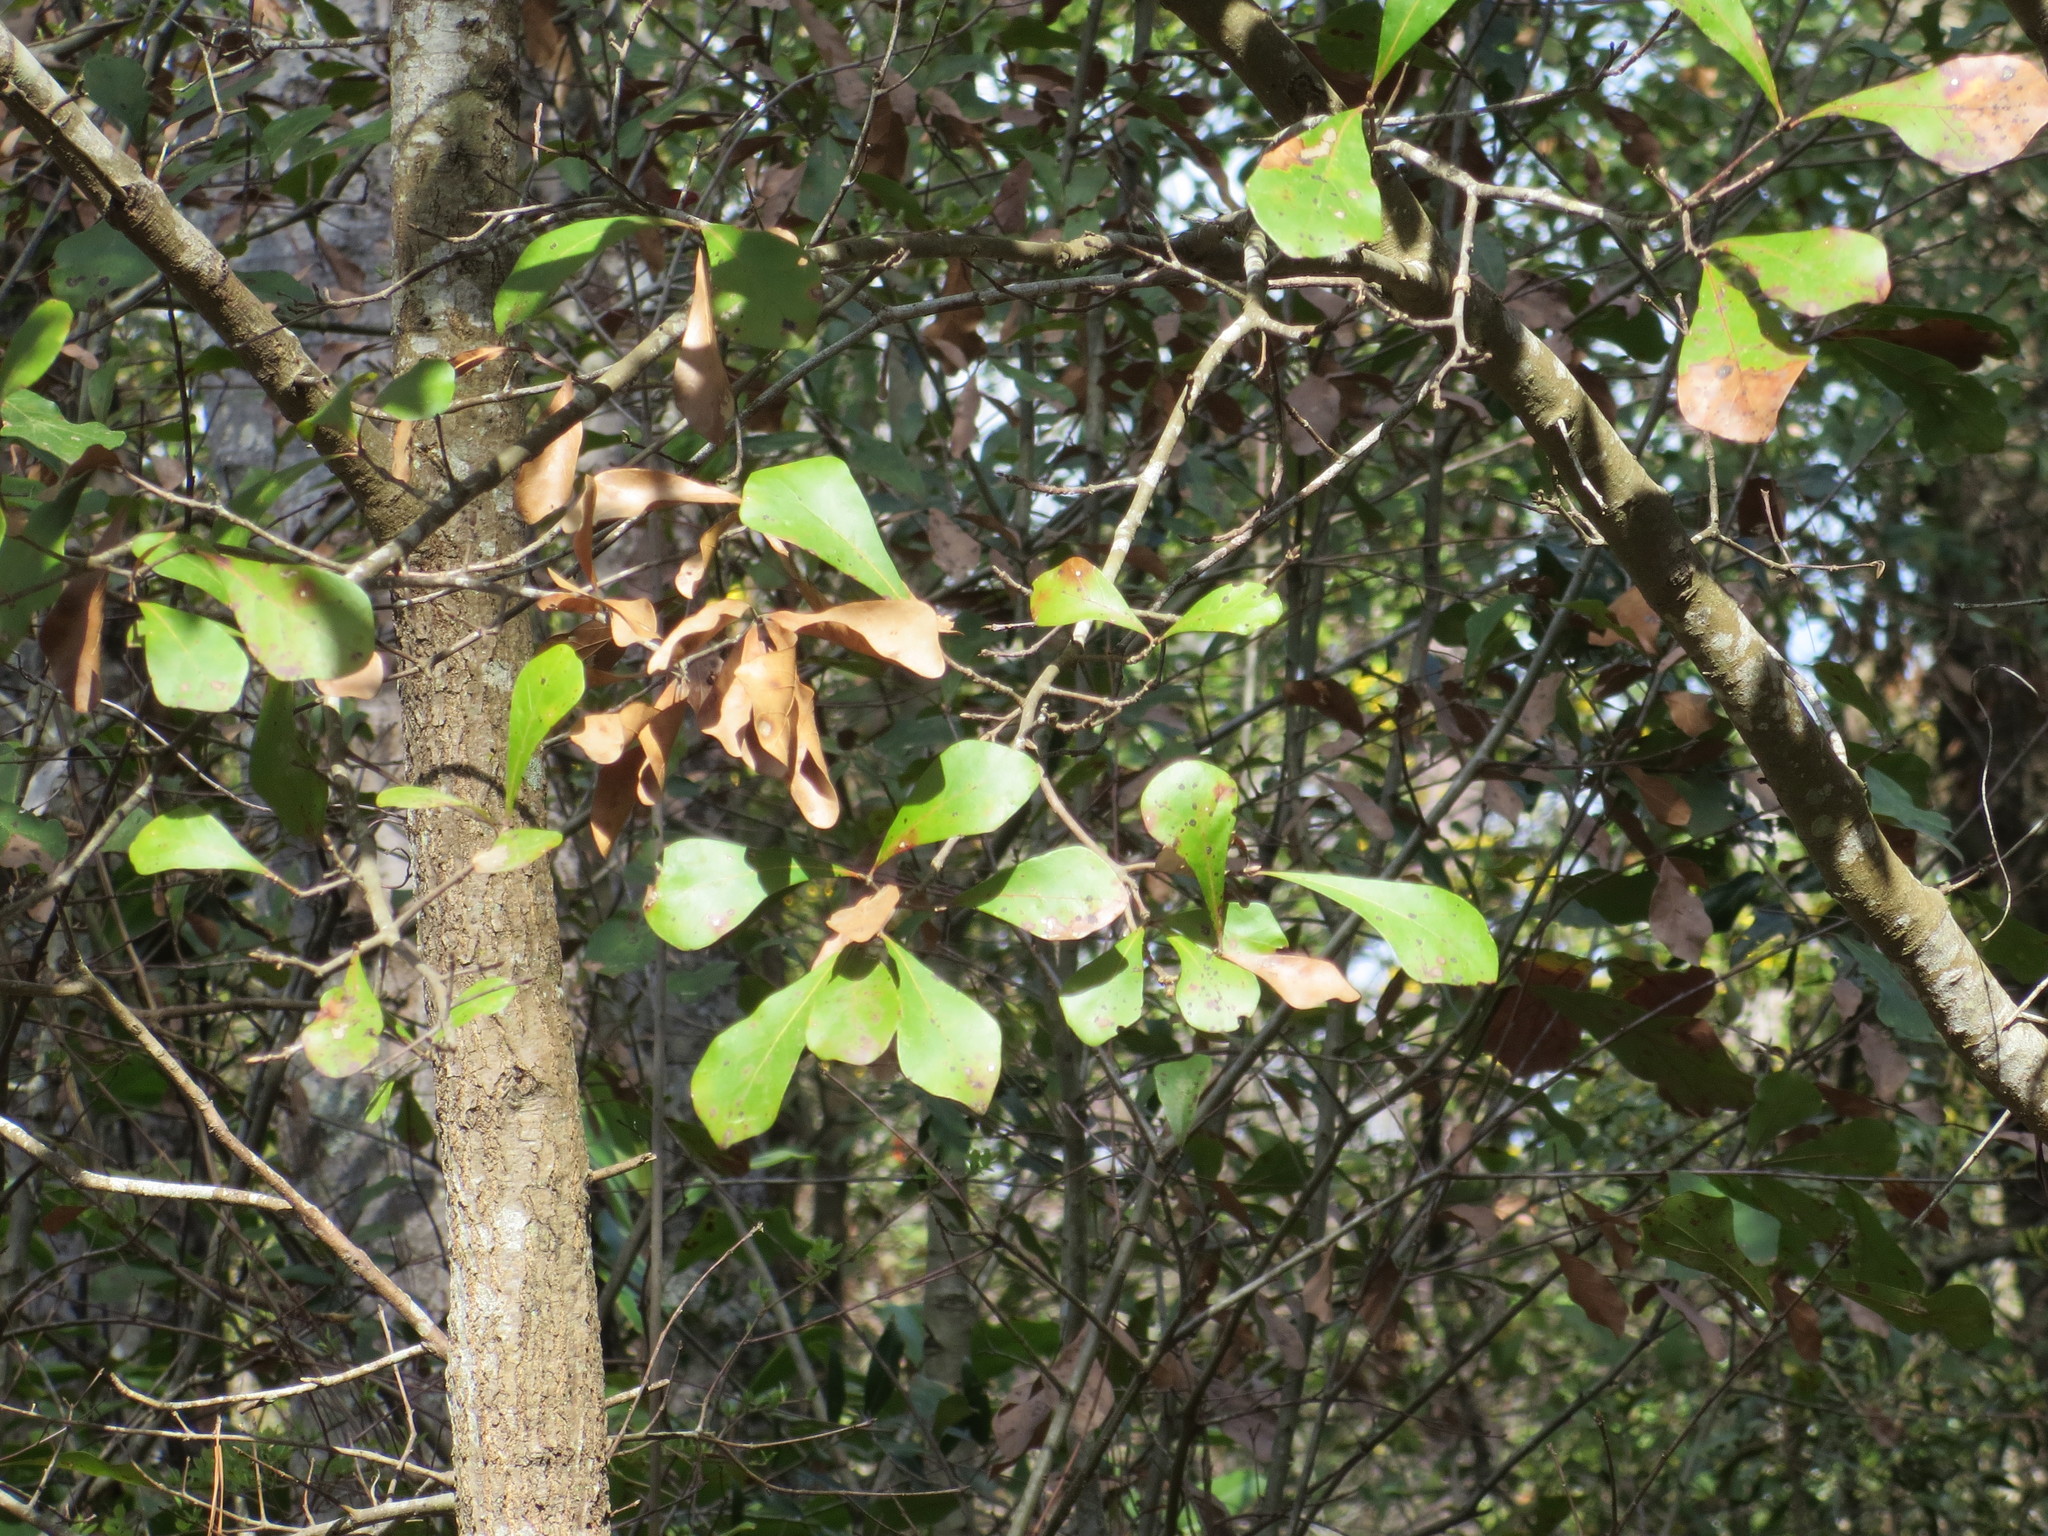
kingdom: Plantae
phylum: Tracheophyta
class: Magnoliopsida
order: Fagales
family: Fagaceae
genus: Quercus
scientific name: Quercus nigra
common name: Water oak
